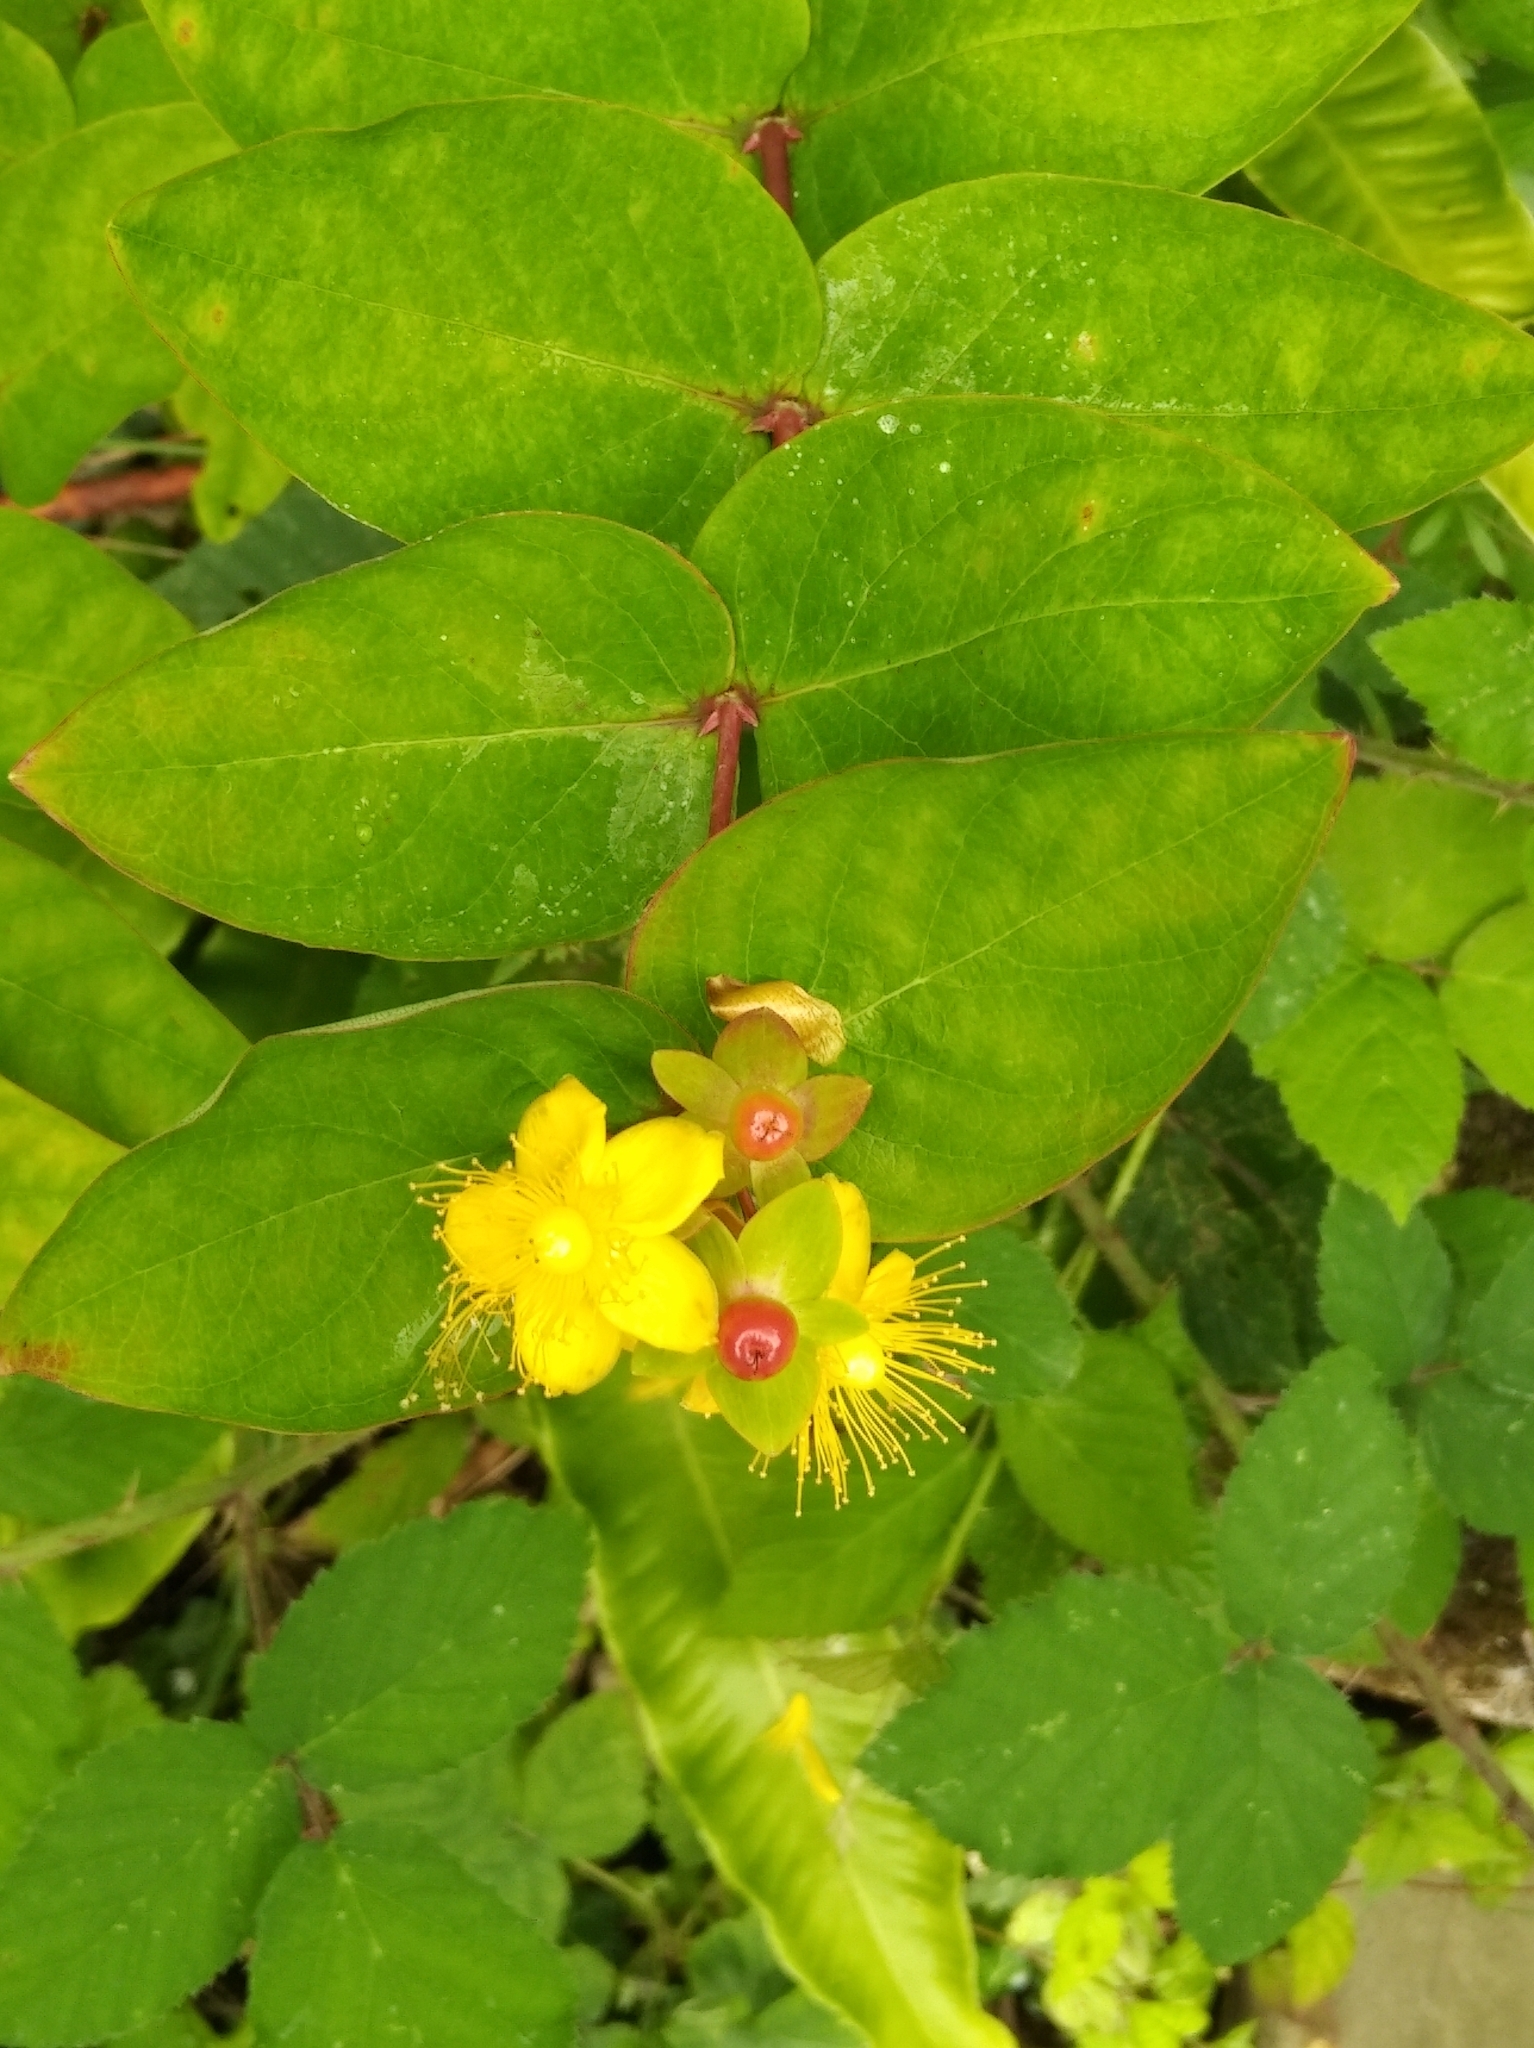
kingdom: Plantae
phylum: Tracheophyta
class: Magnoliopsida
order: Malpighiales
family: Hypericaceae
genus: Hypericum
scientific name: Hypericum androsaemum
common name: Sweet-amber
